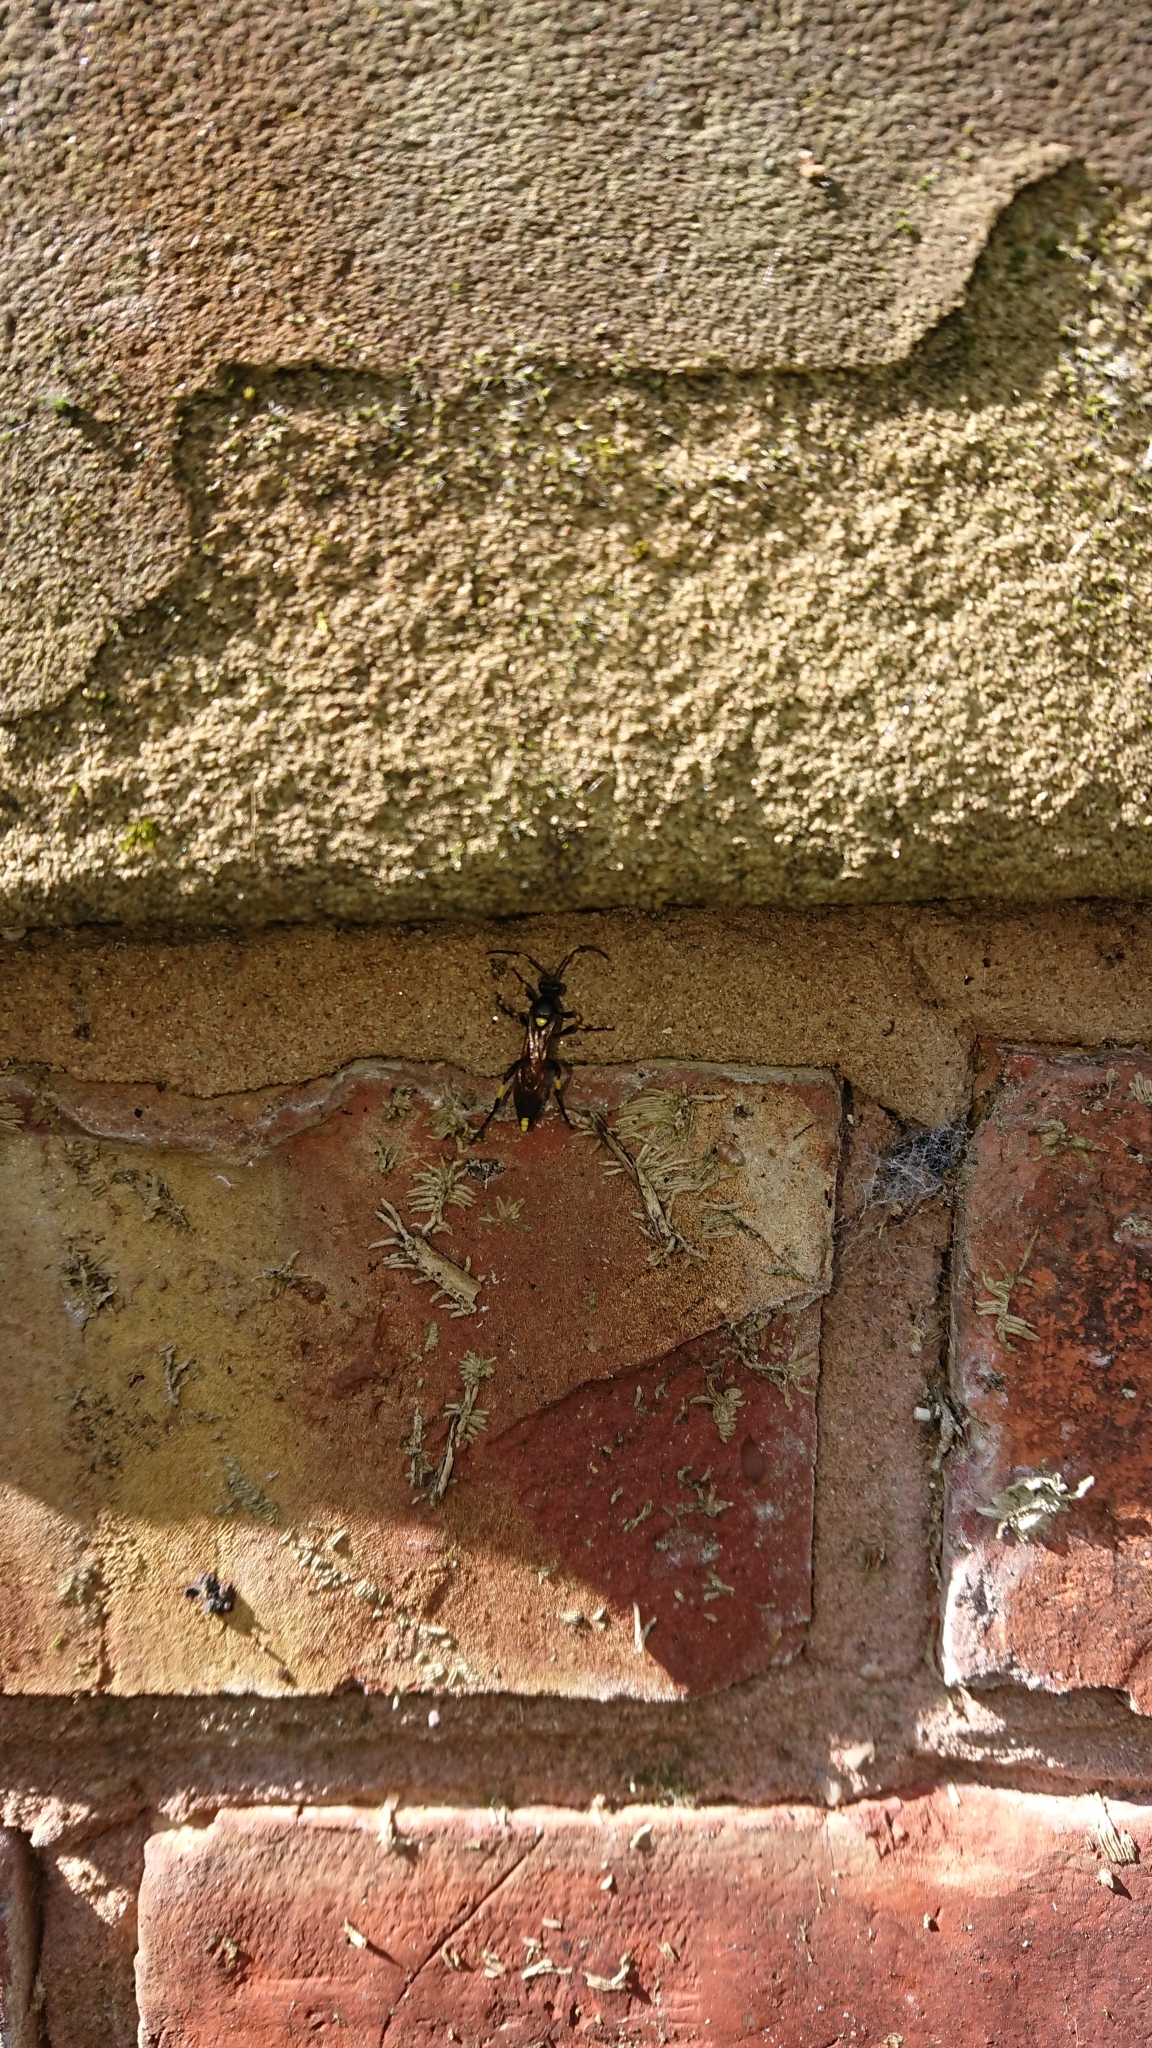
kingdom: Animalia
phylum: Arthropoda
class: Insecta
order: Hymenoptera
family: Ichneumonidae
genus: Ichneumon
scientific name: Ichneumon stramentor
